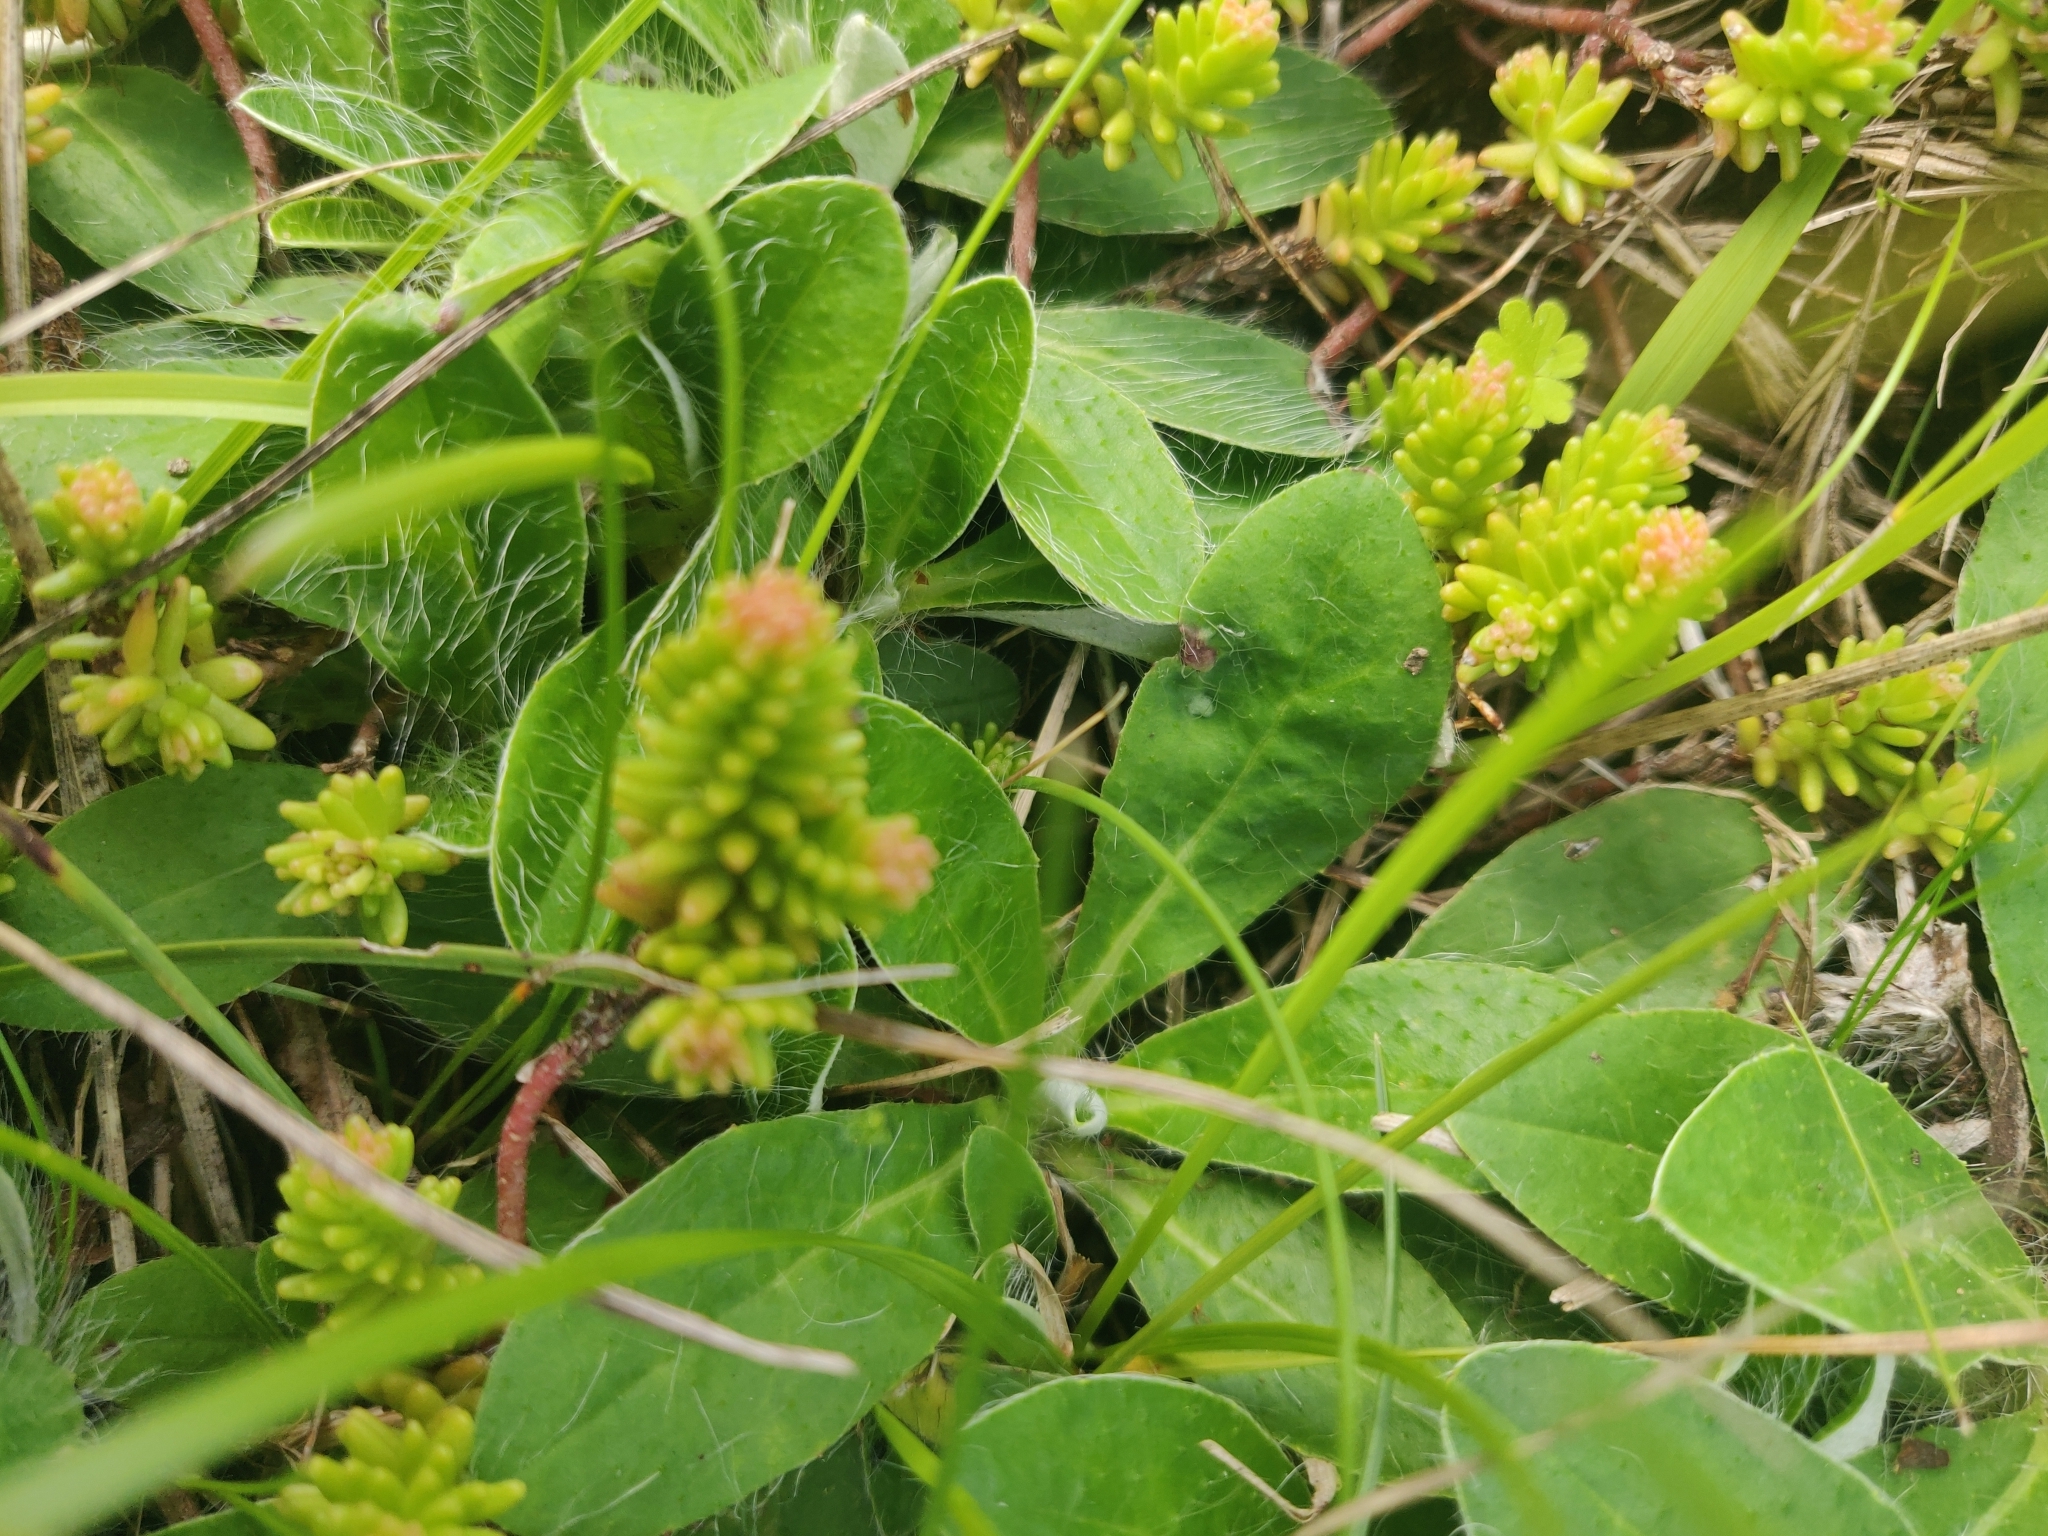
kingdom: Plantae
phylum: Tracheophyta
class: Magnoliopsida
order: Saxifragales
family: Crassulaceae
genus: Sedum
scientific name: Sedum sexangulare
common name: Tasteless stonecrop
